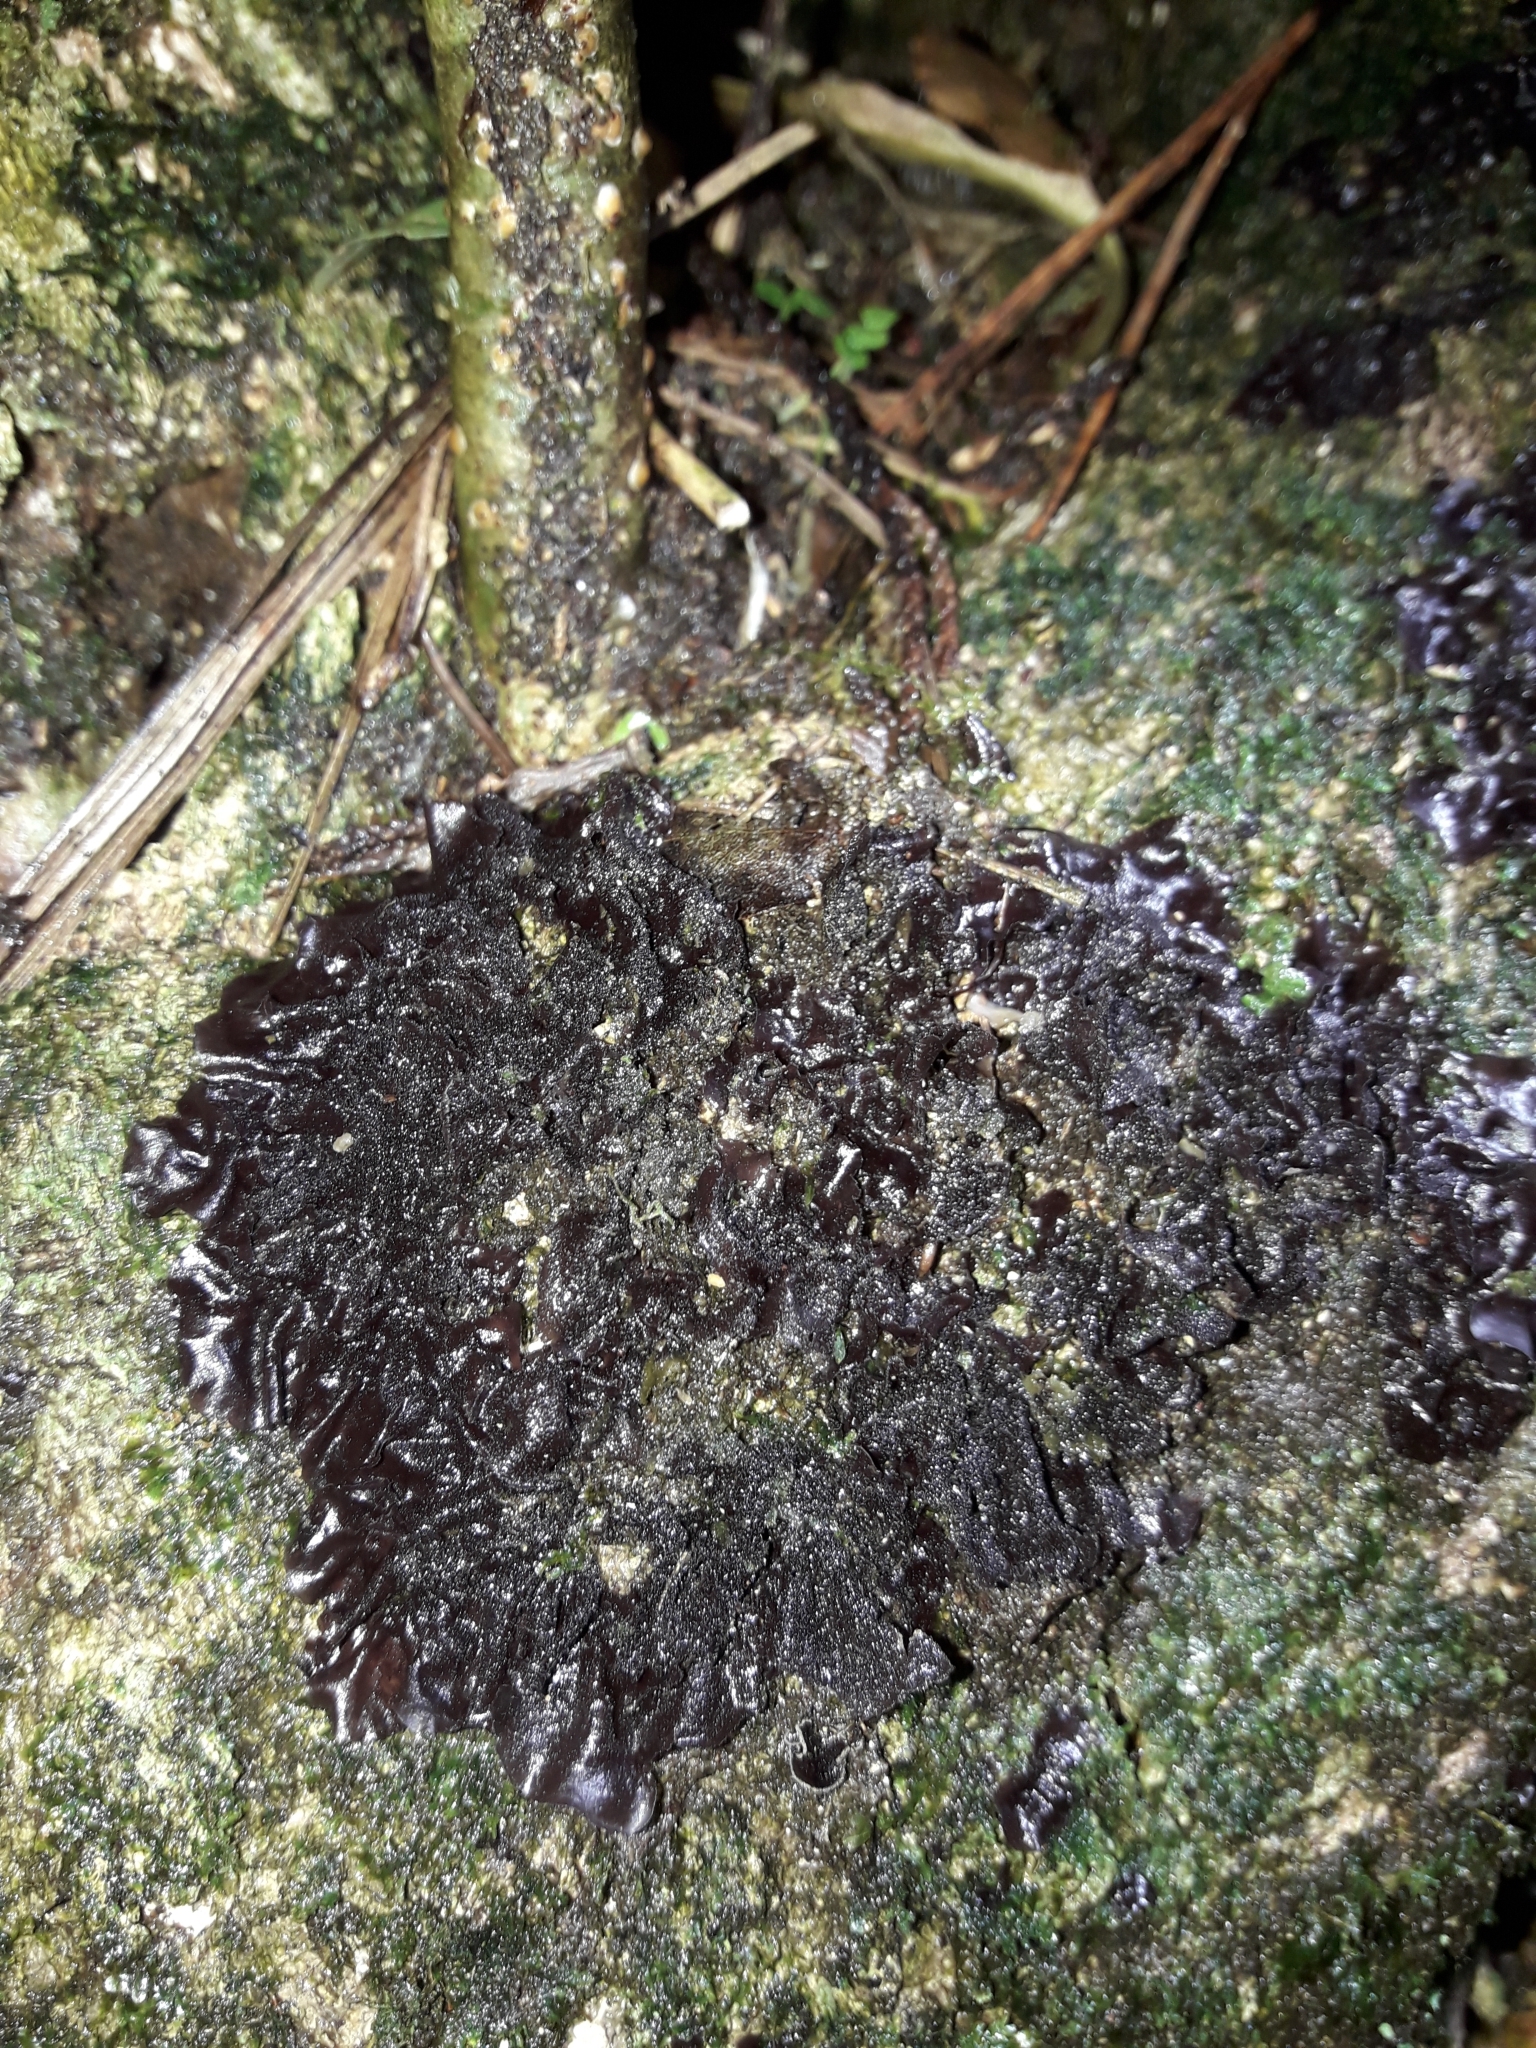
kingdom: Fungi
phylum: Ascomycota
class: Lecanoromycetes
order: Peltigerales
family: Collemataceae
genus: Leptogium
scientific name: Leptogium cyanescens
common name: Blue jellyskin
